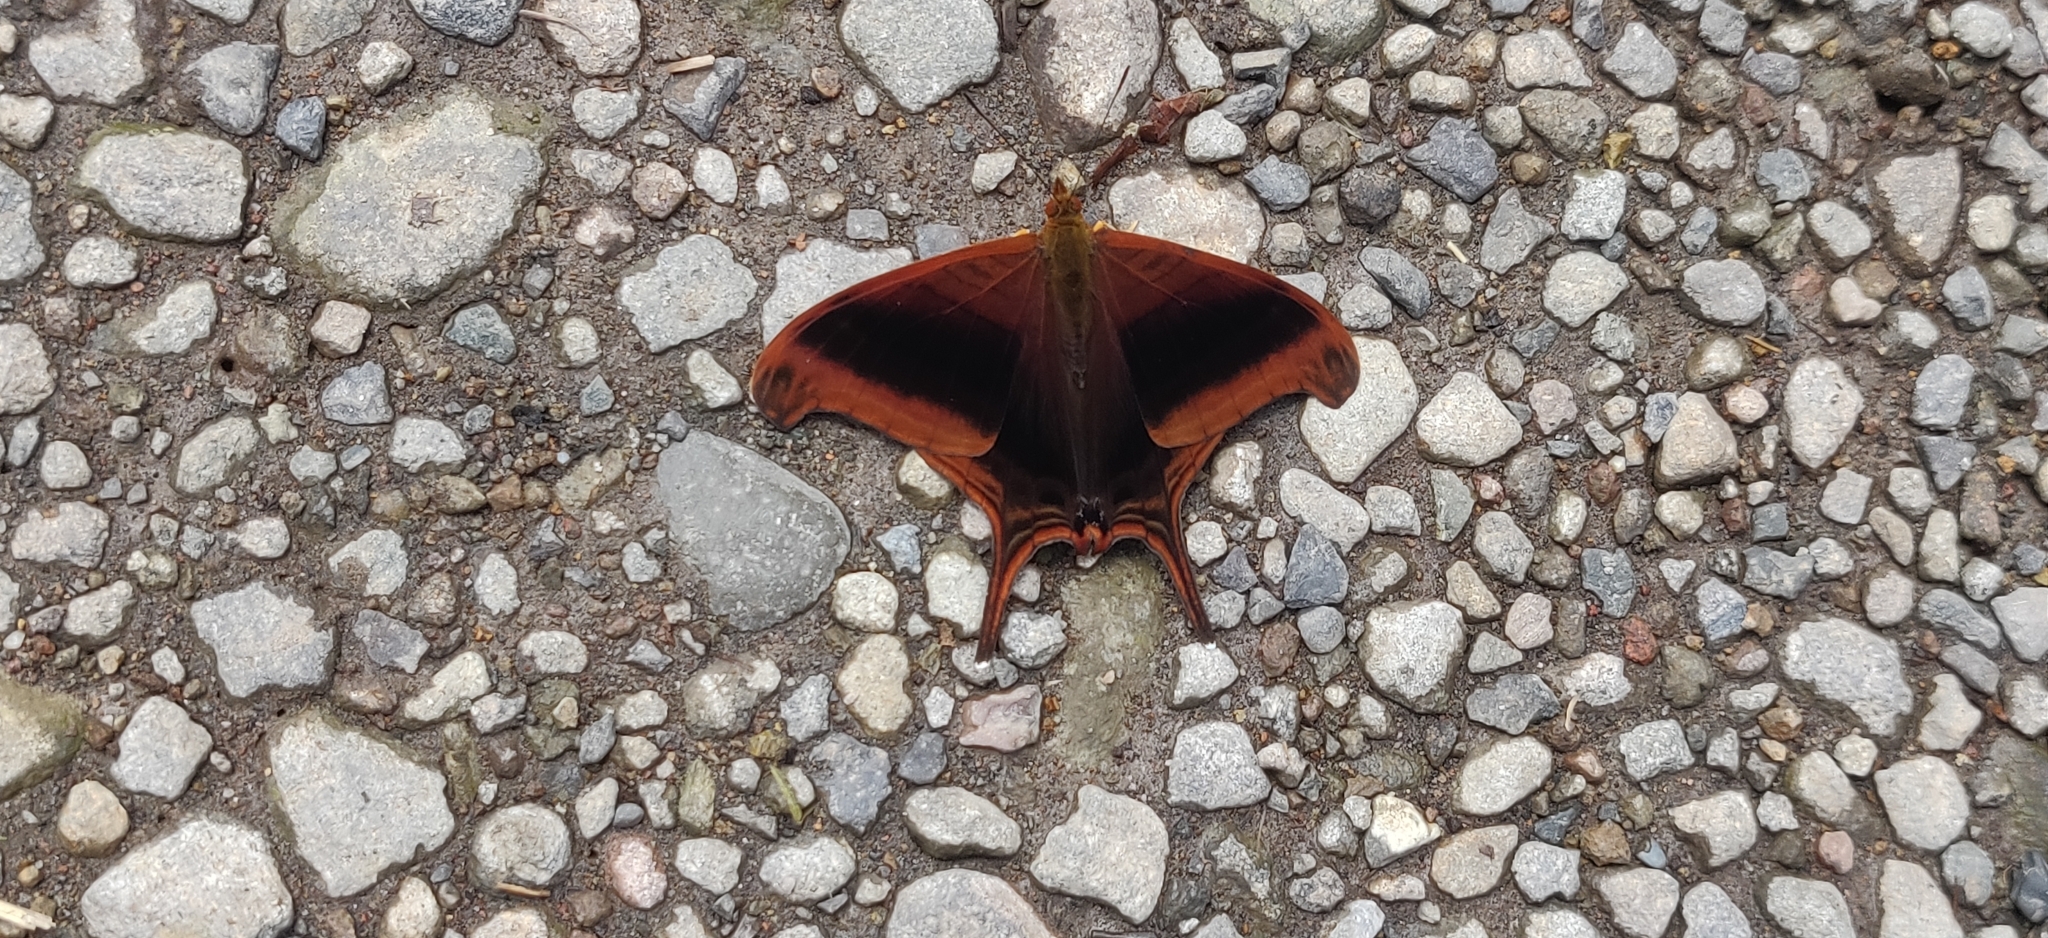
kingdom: Animalia
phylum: Arthropoda
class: Insecta
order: Lepidoptera
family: Nymphalidae
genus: Marpesia
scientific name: Marpesia zerynthia
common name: Waiter daggerwing
